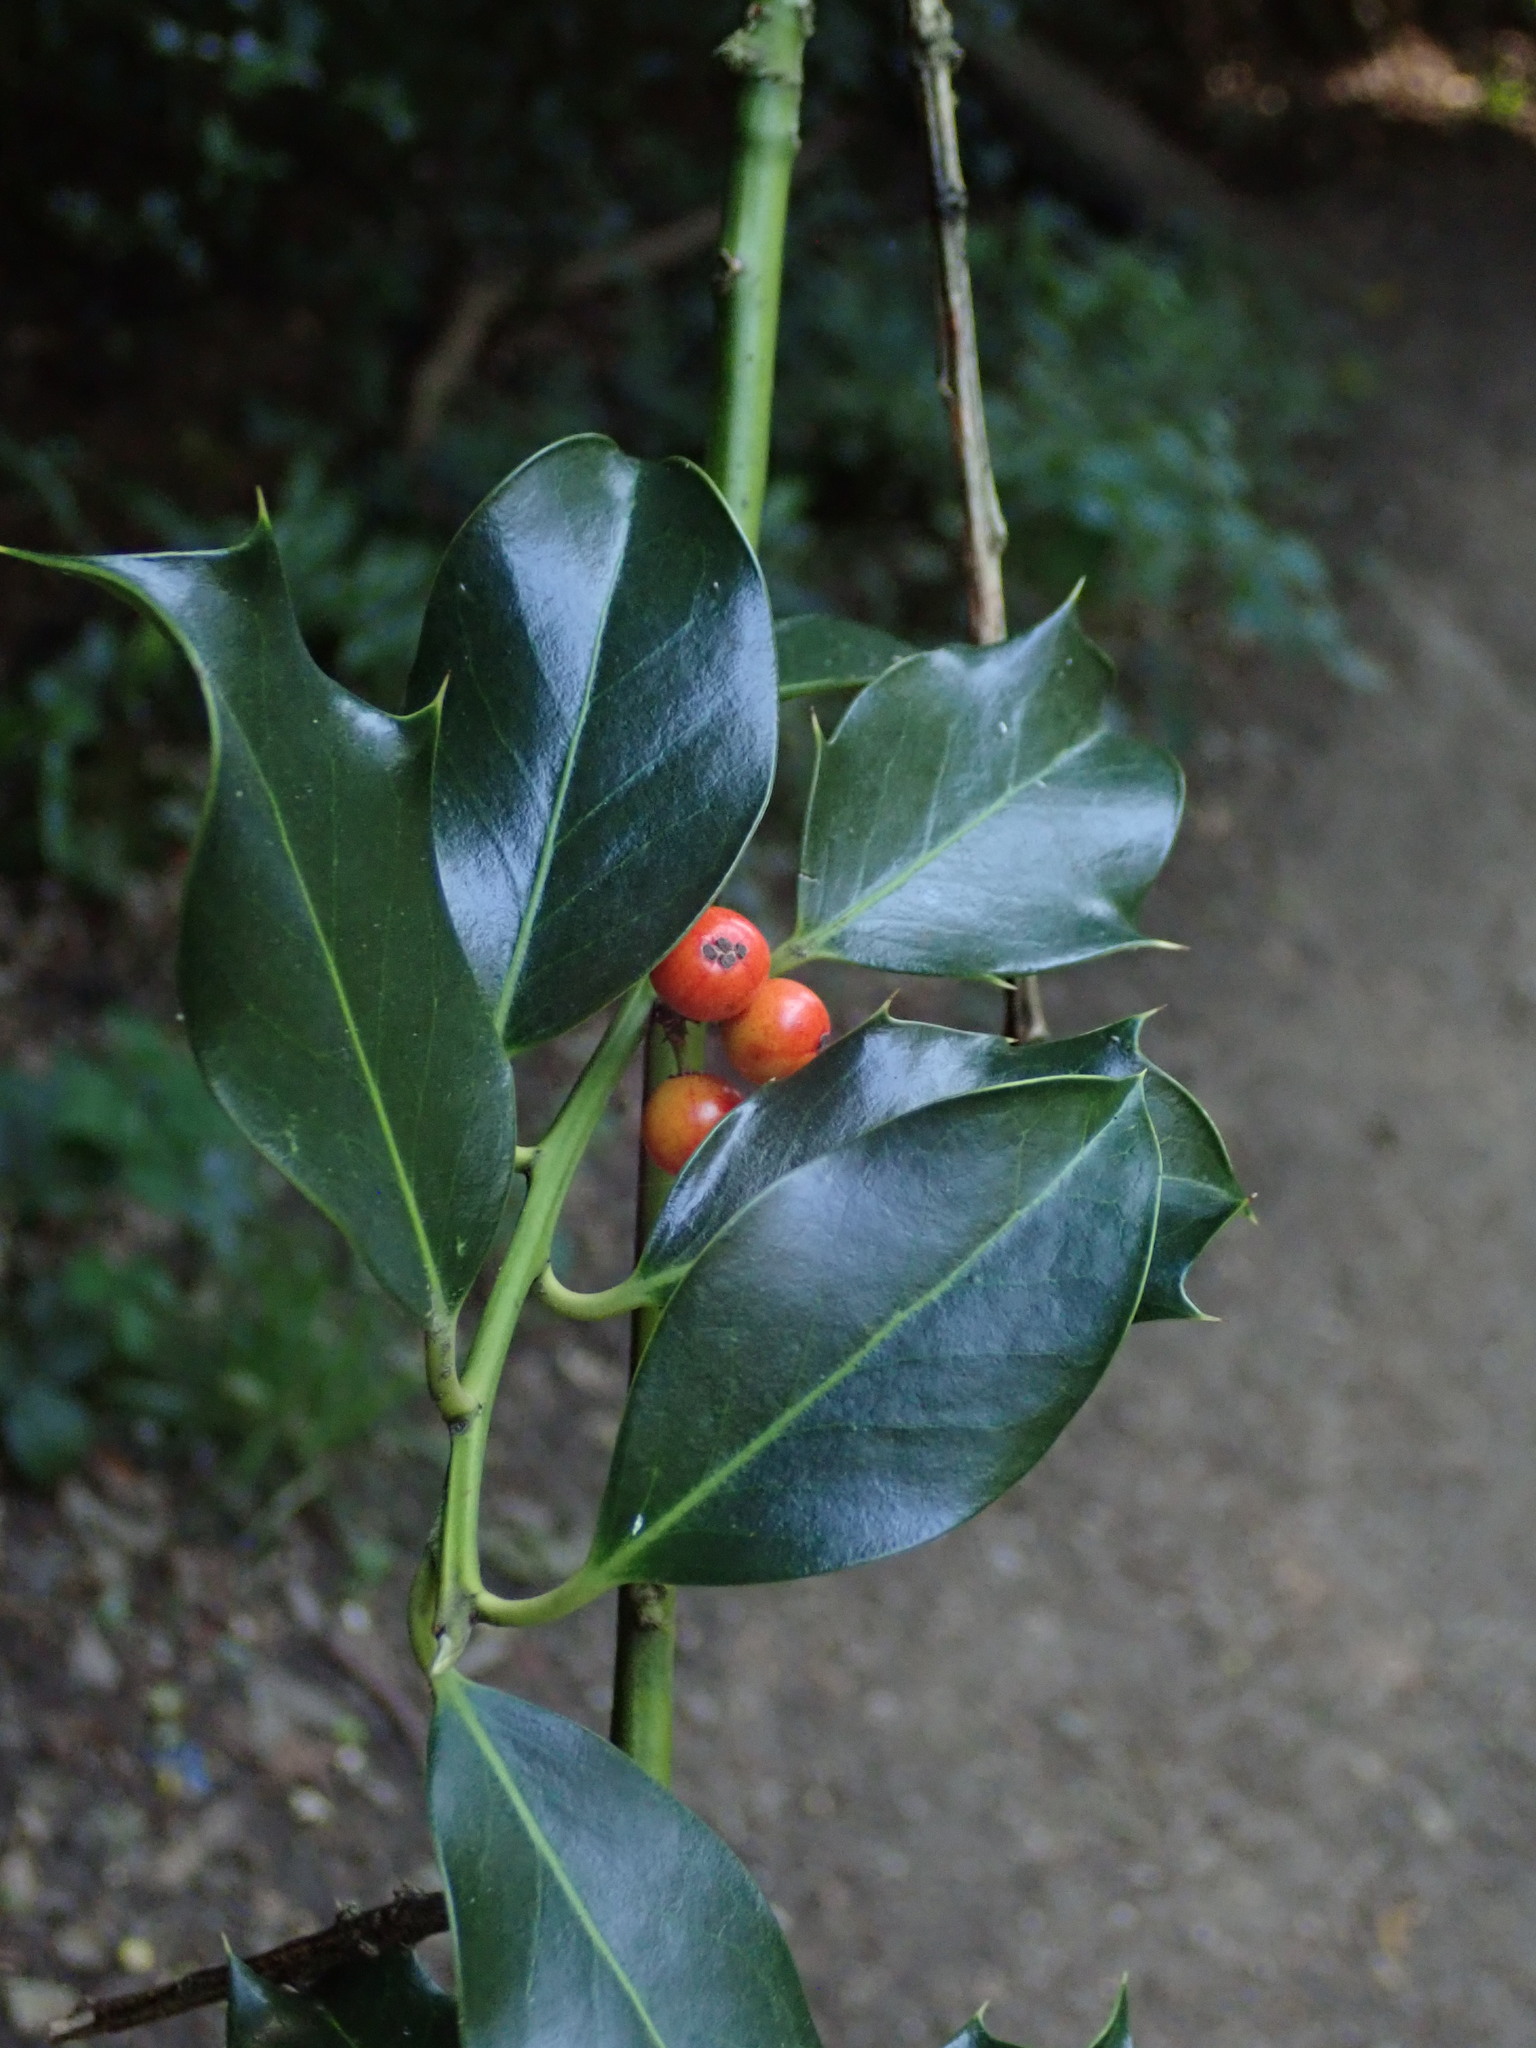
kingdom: Plantae
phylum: Tracheophyta
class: Magnoliopsida
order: Aquifoliales
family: Aquifoliaceae
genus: Ilex
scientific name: Ilex aquifolium
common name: English holly
